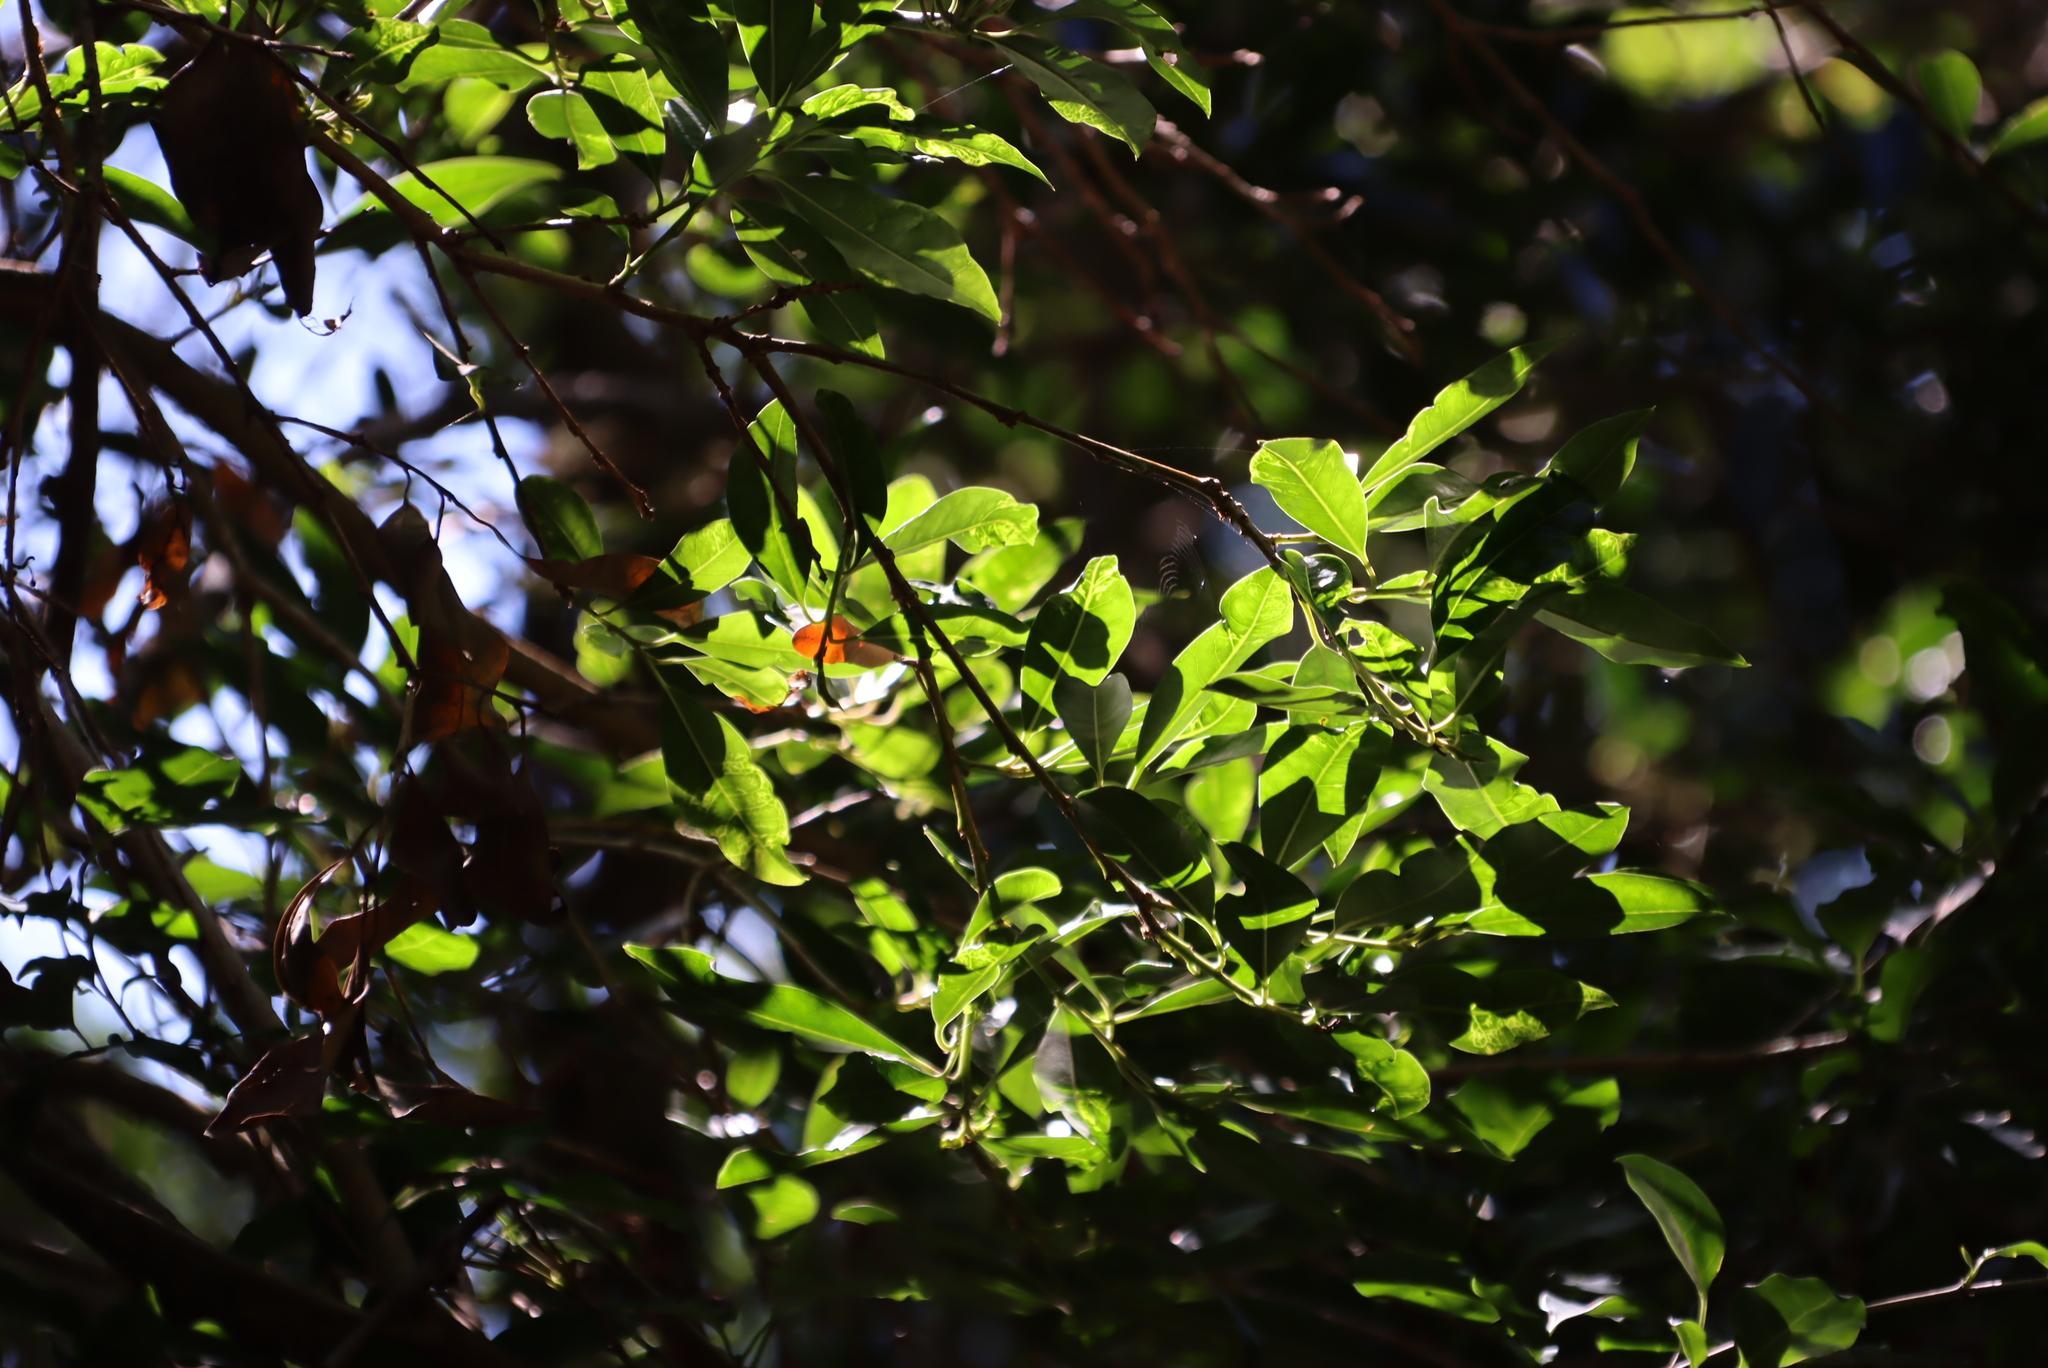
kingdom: Plantae
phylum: Tracheophyta
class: Magnoliopsida
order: Aquifoliales
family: Aquifoliaceae
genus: Ilex
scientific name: Ilex mitis
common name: African holly
